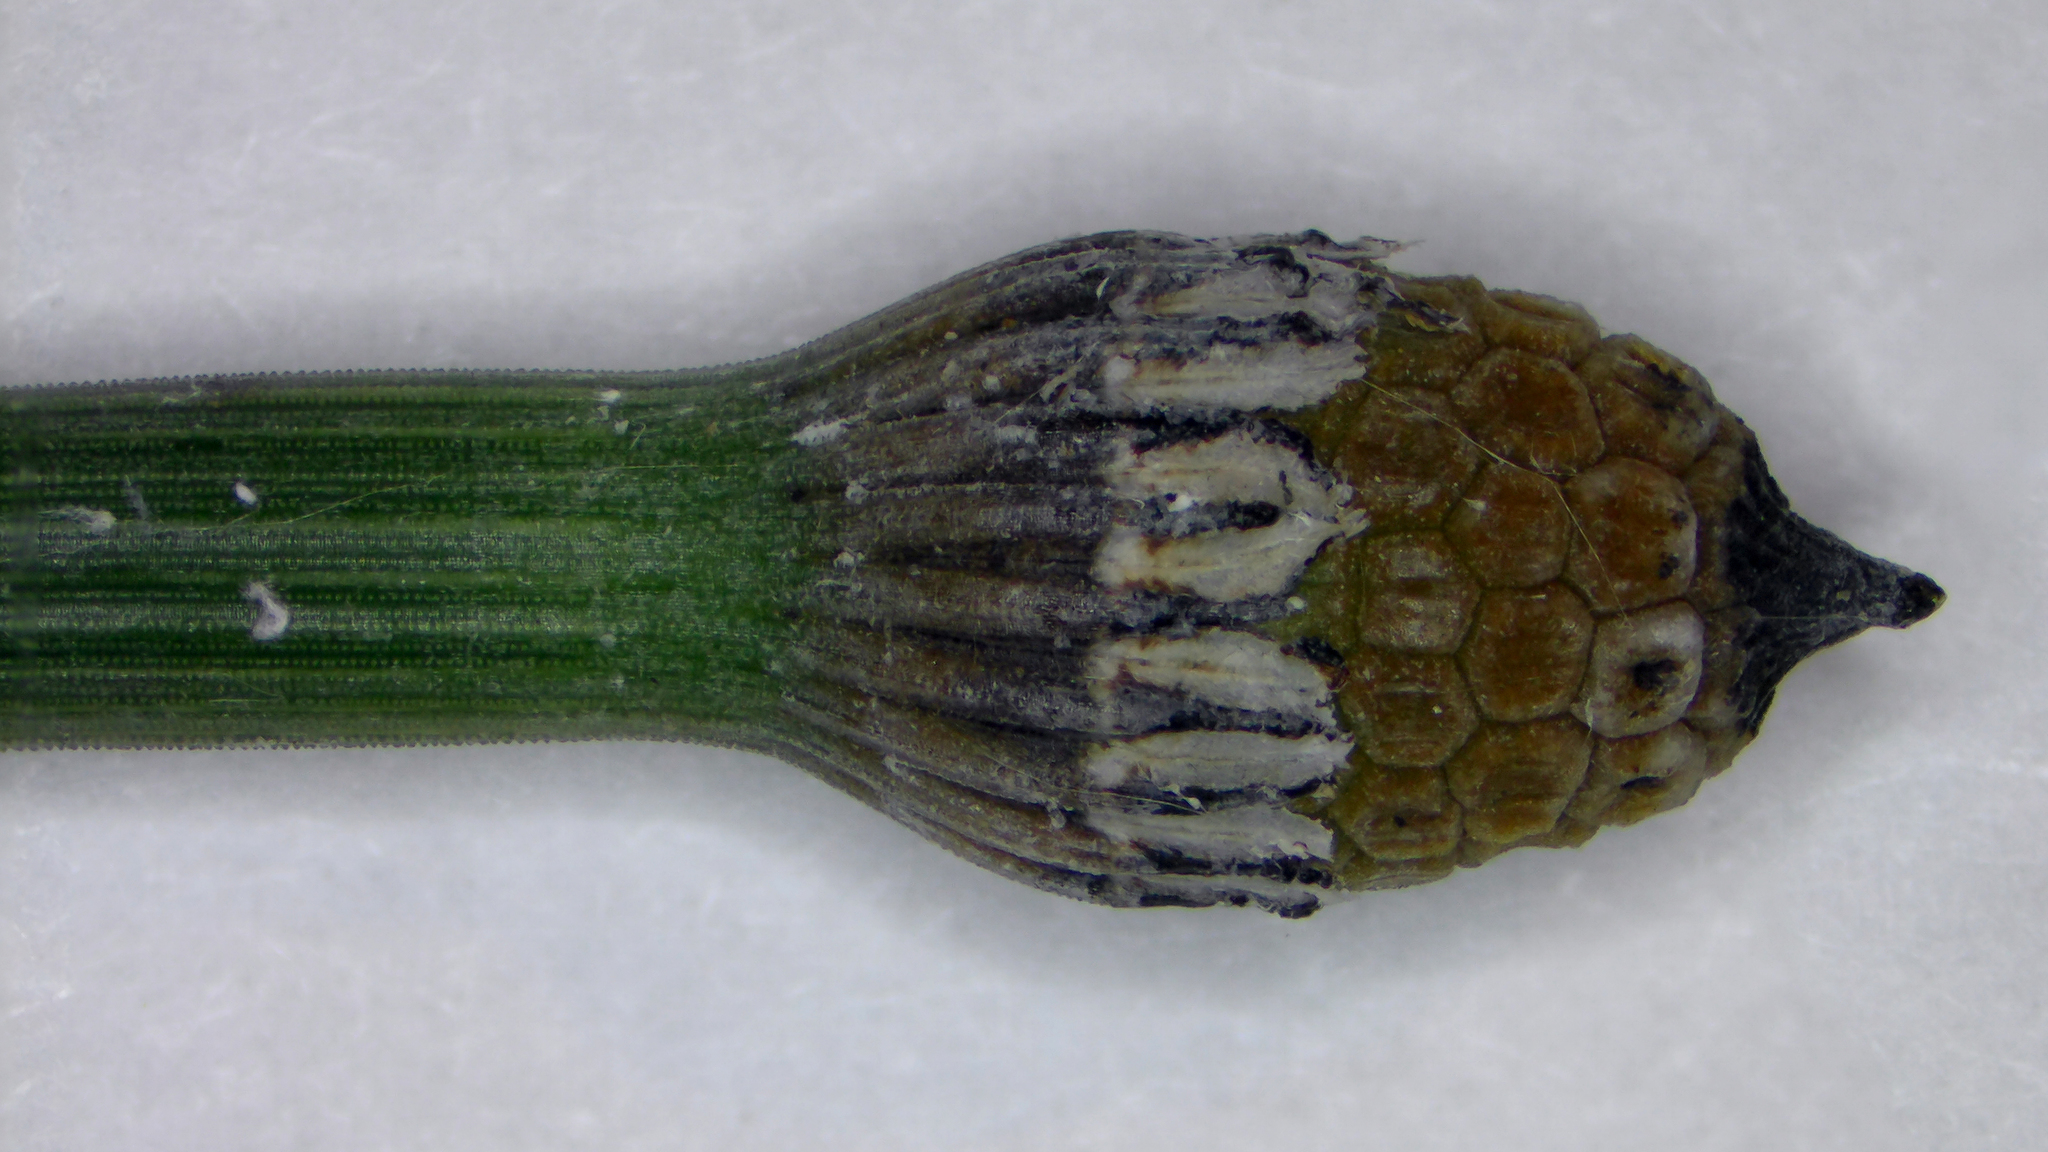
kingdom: Plantae
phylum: Tracheophyta
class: Polypodiopsida
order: Equisetales
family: Equisetaceae
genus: Equisetum
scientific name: Equisetum praealtum
